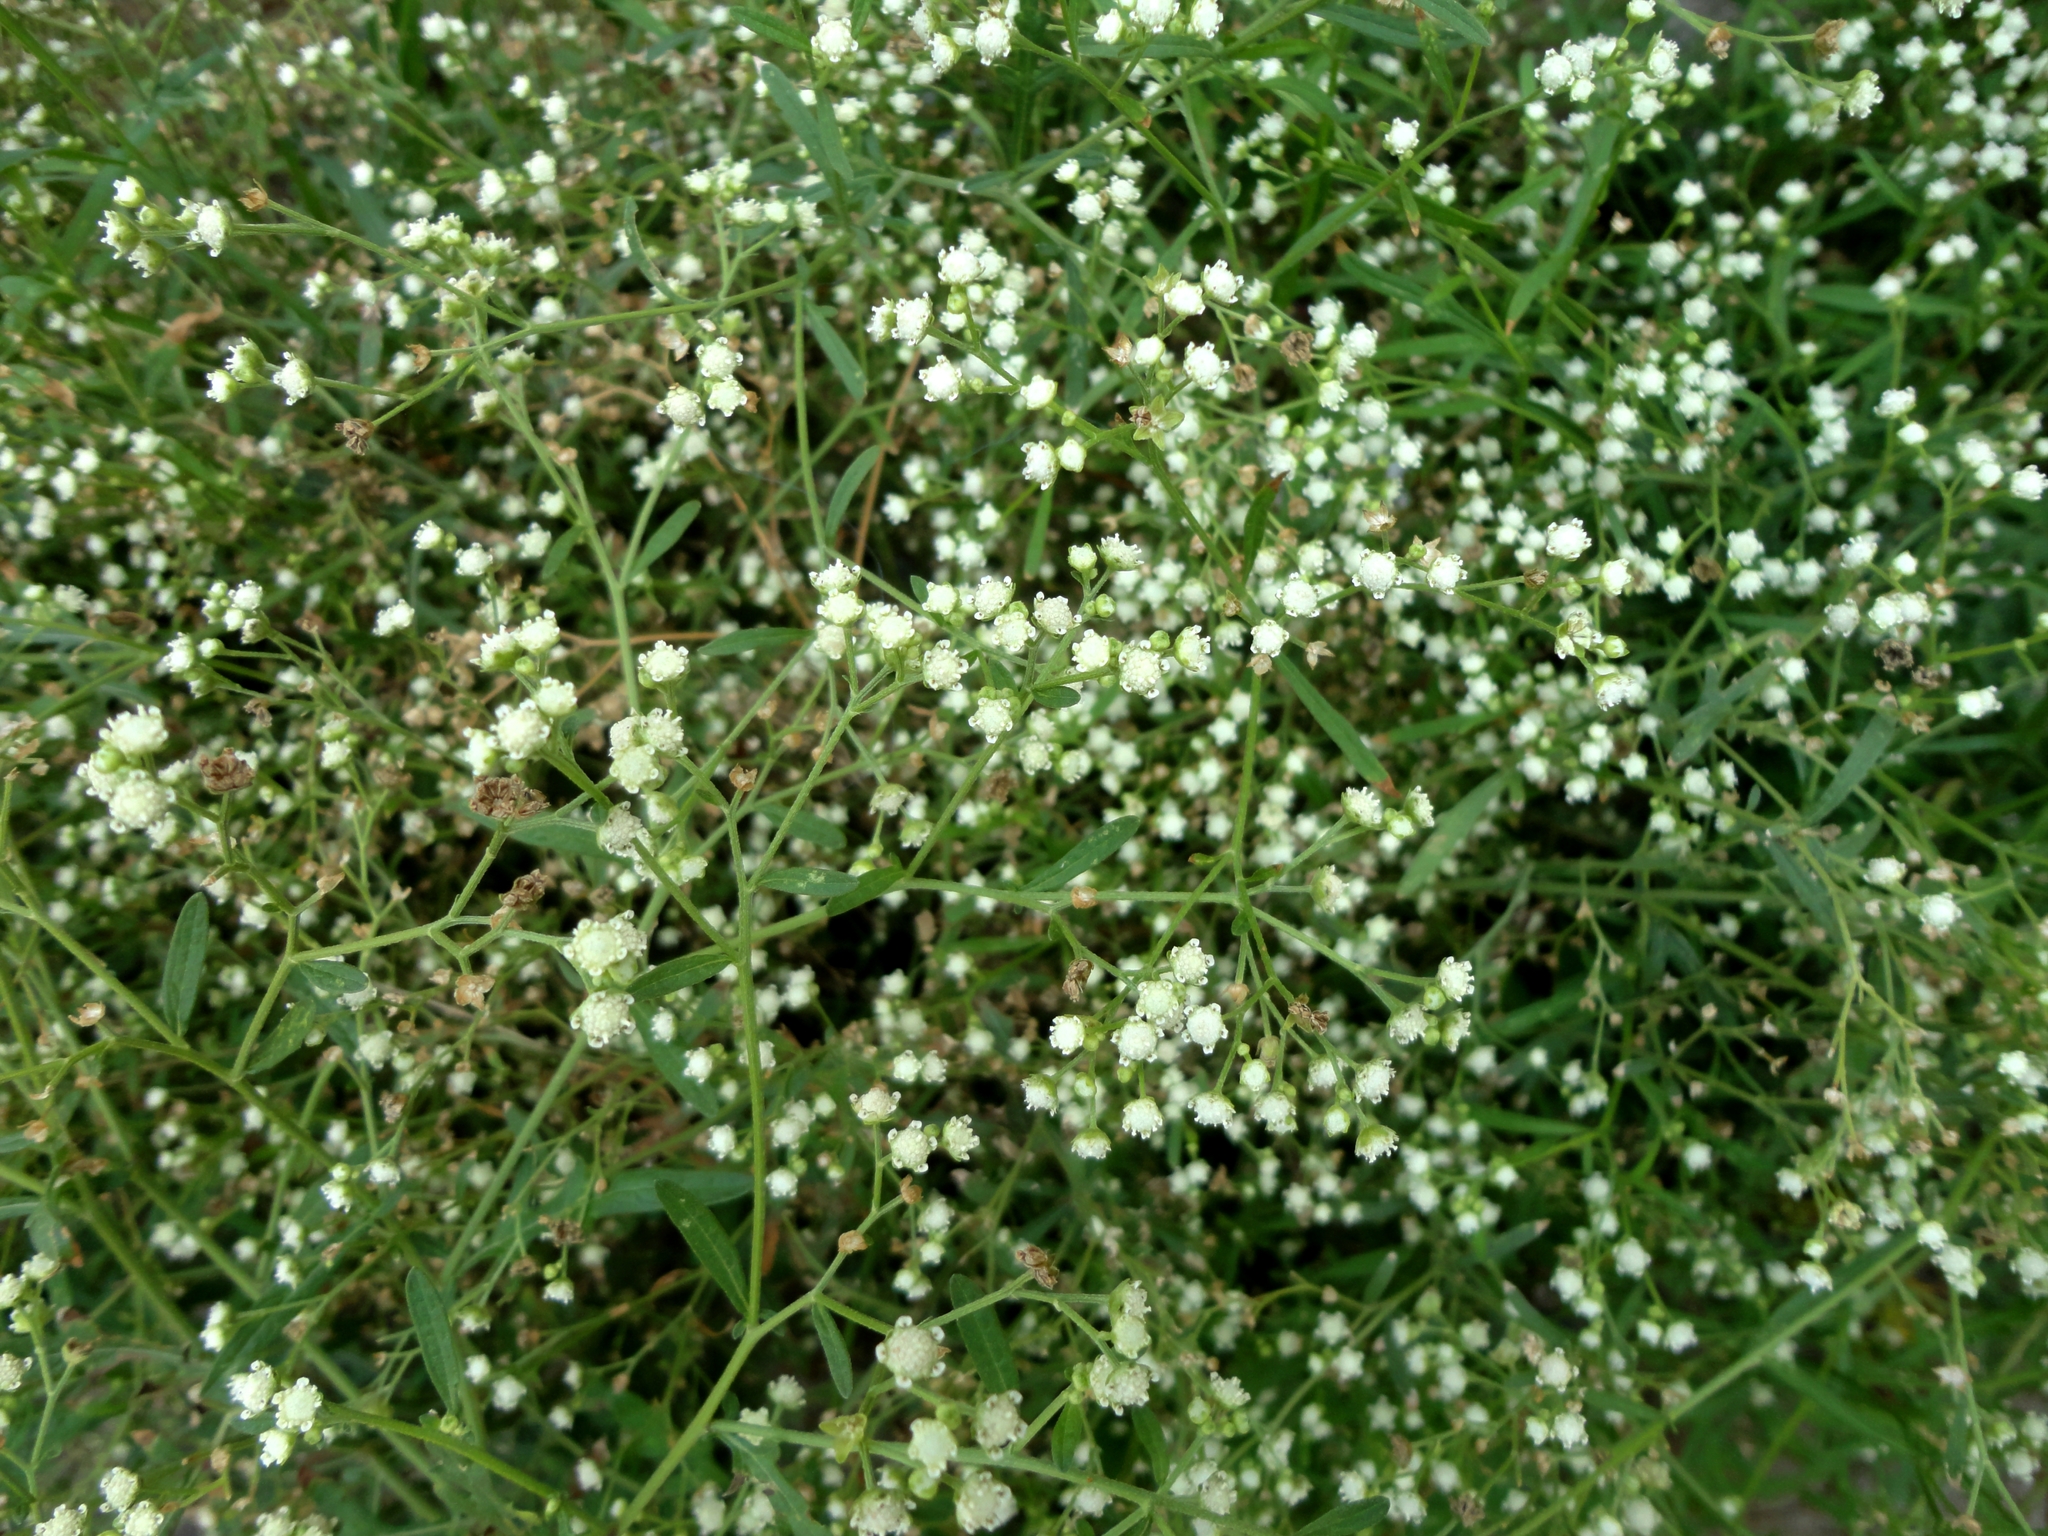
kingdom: Plantae
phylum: Tracheophyta
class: Magnoliopsida
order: Asterales
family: Asteraceae
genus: Parthenium
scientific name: Parthenium hysterophorus
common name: Santa maria feverfew
